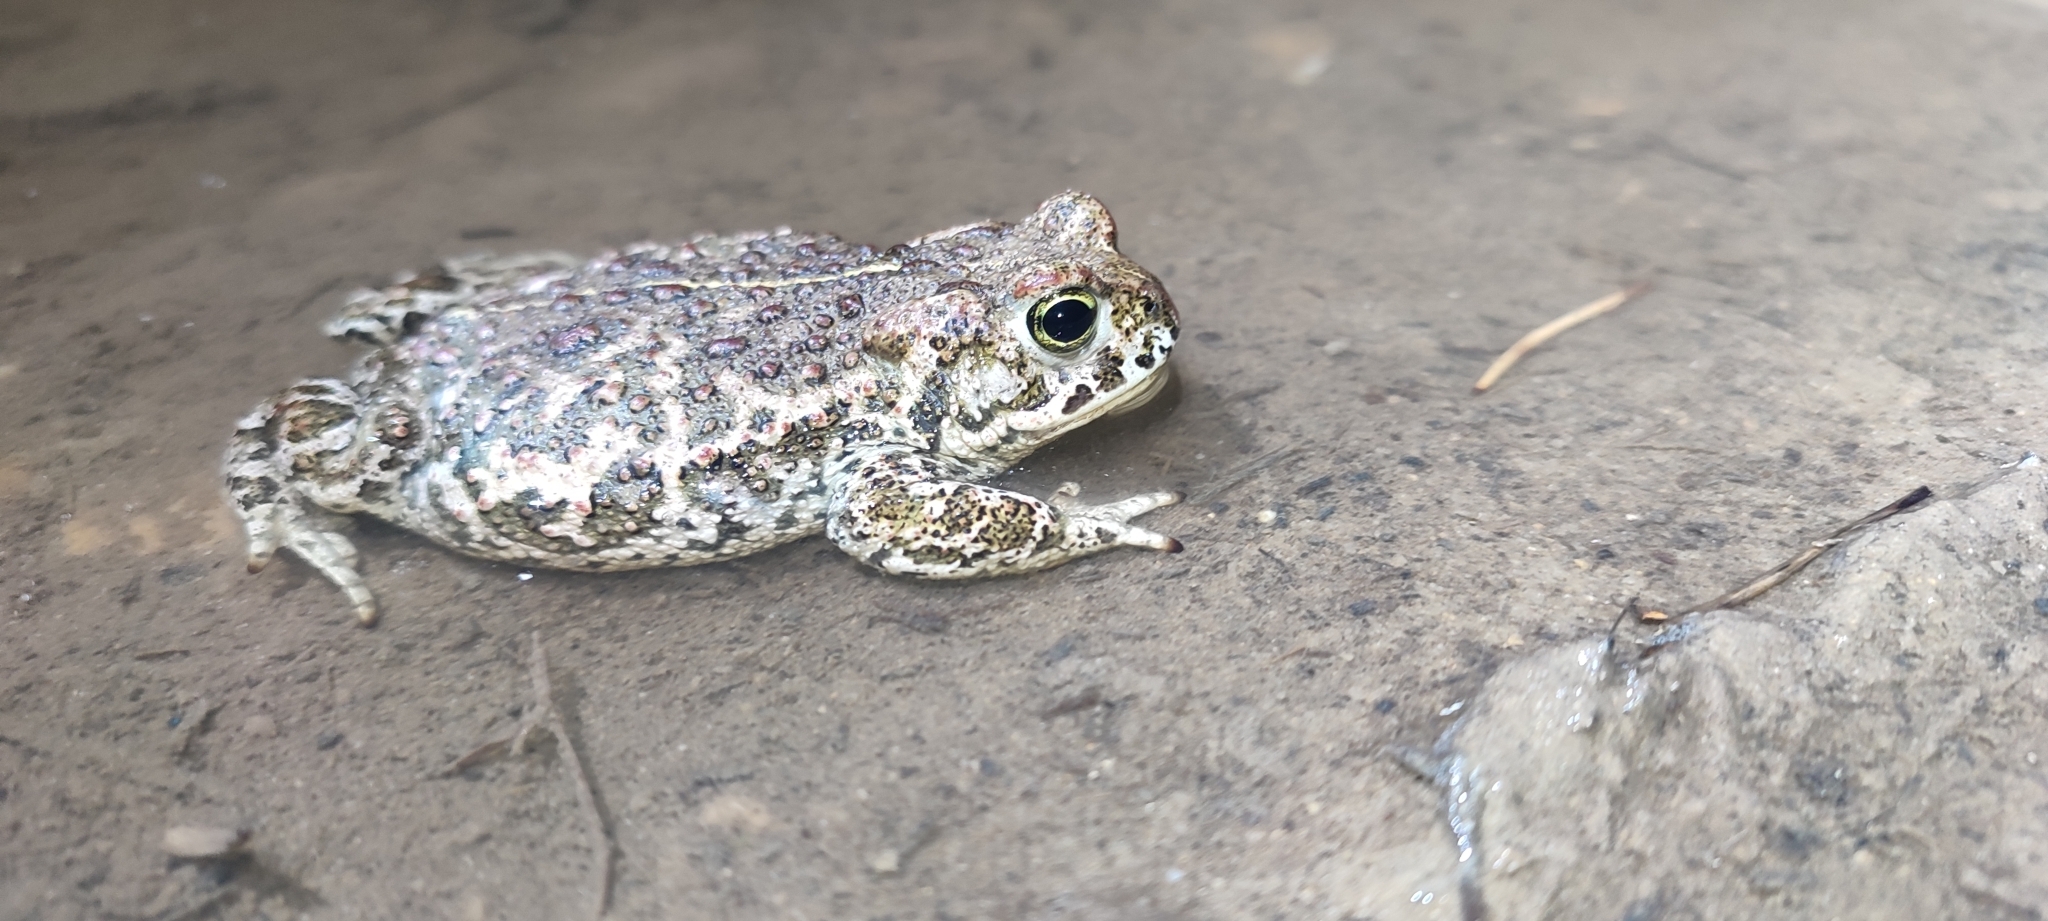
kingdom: Animalia
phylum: Chordata
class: Amphibia
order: Anura
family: Bufonidae
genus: Epidalea
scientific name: Epidalea calamita
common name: Natterjack toad
